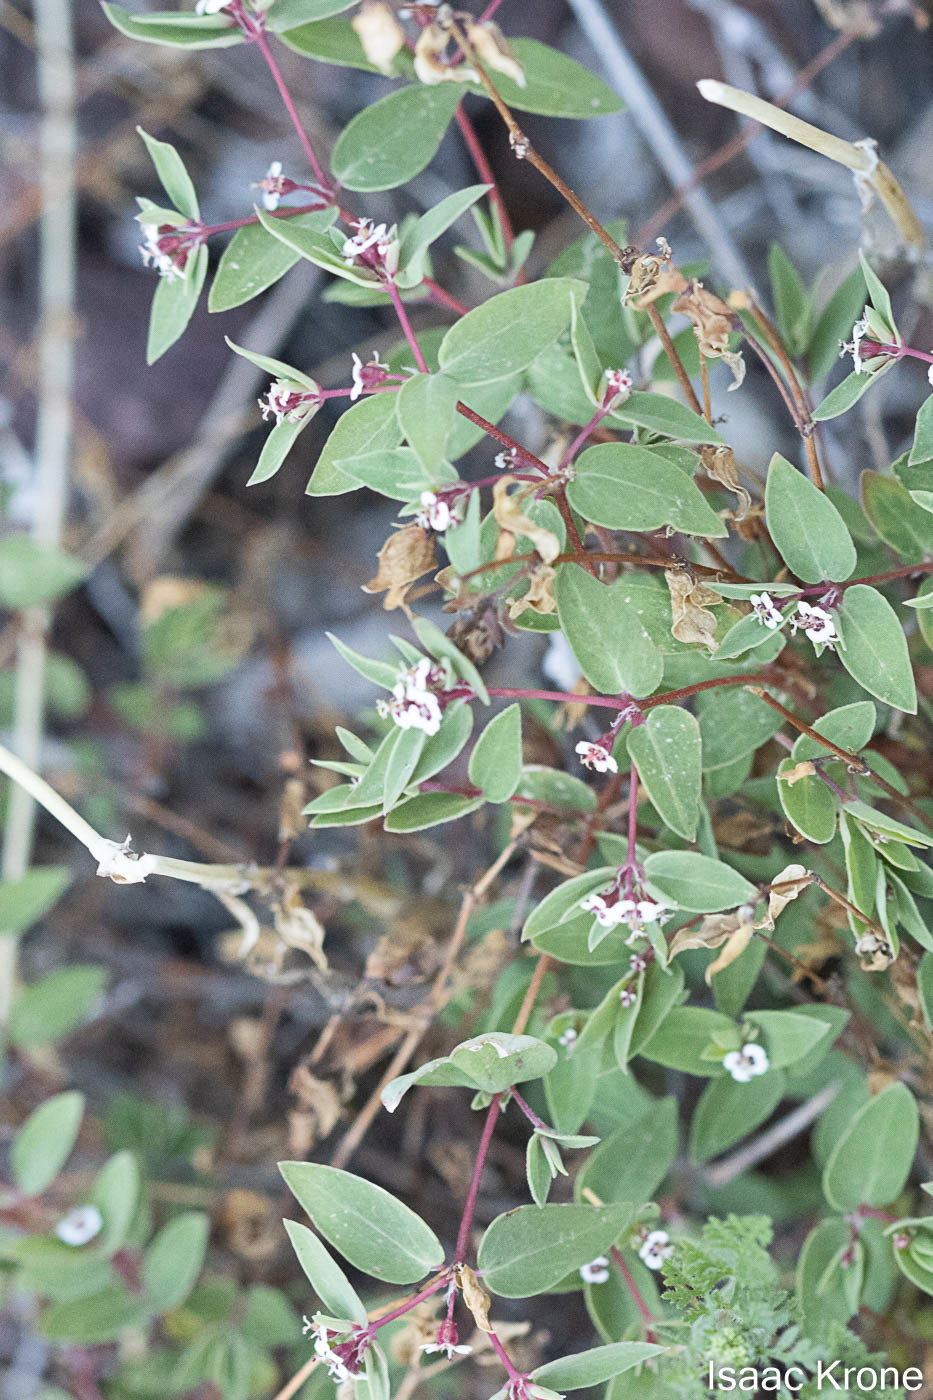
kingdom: Plantae
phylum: Tracheophyta
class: Magnoliopsida
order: Malpighiales
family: Euphorbiaceae
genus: Euphorbia
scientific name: Euphorbia capitellata
